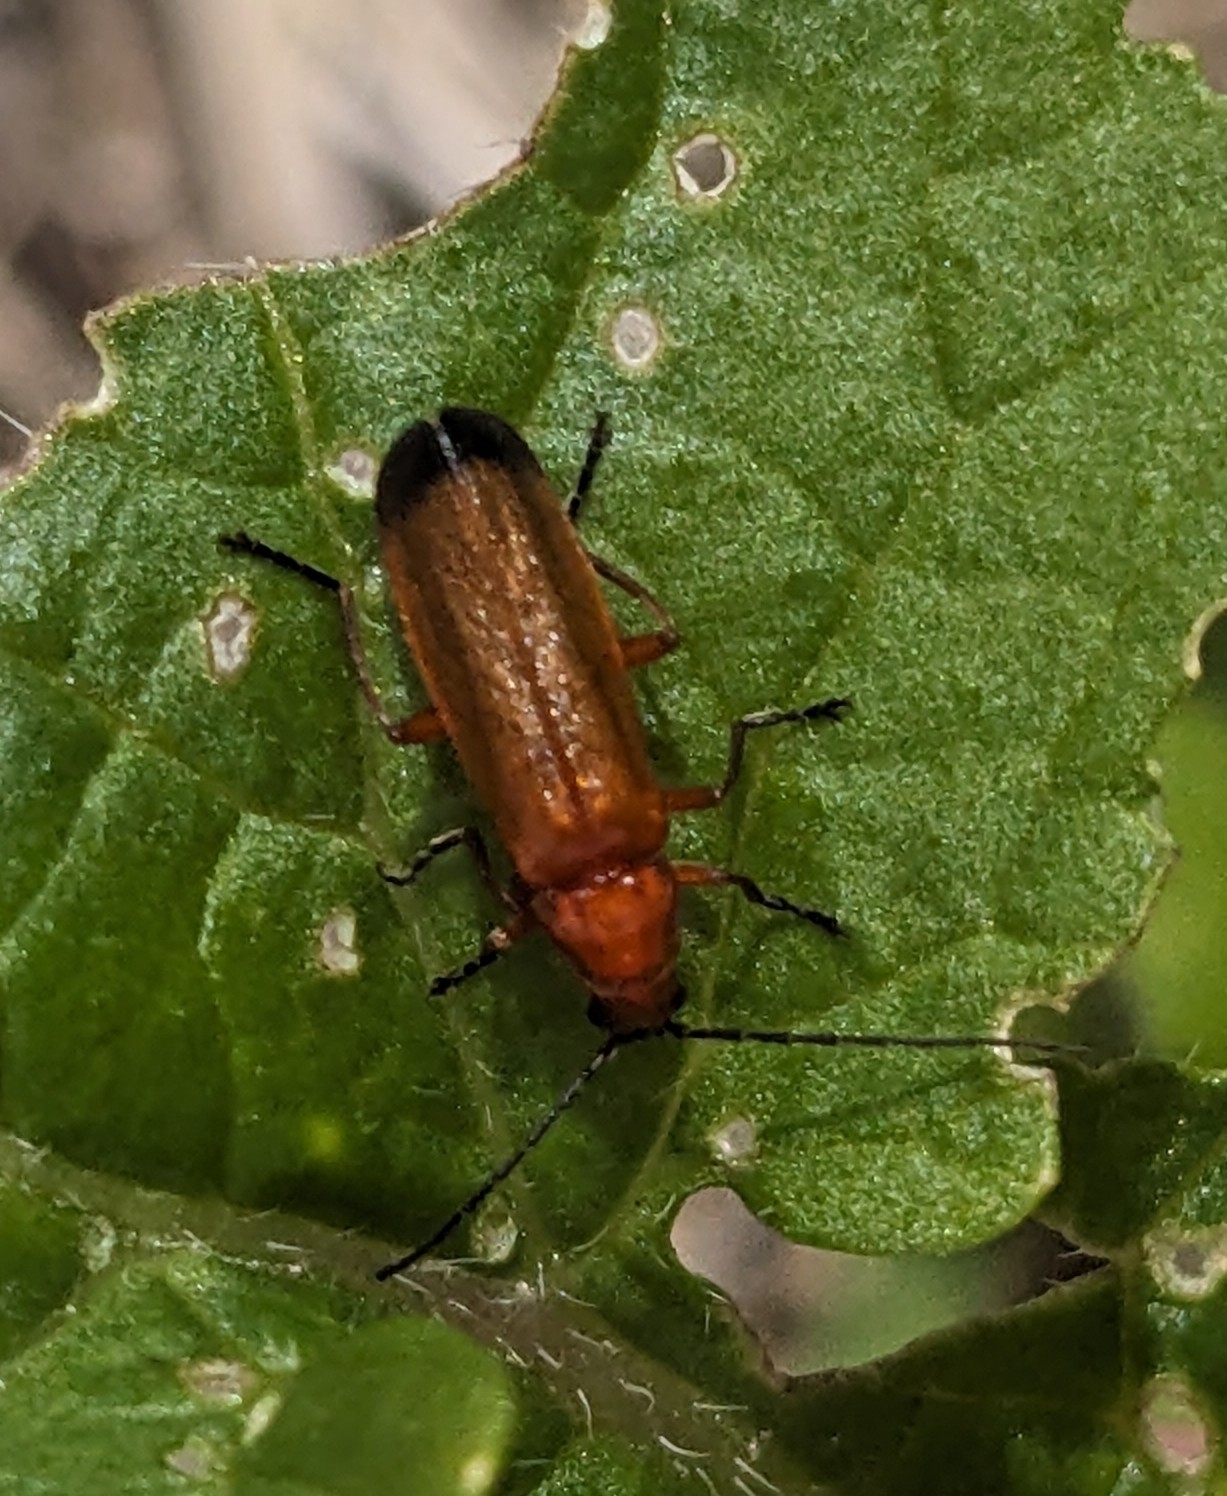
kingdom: Animalia
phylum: Arthropoda
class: Insecta
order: Coleoptera
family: Cantharidae
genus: Rhagonycha
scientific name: Rhagonycha fulva
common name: Common red soldier beetle
